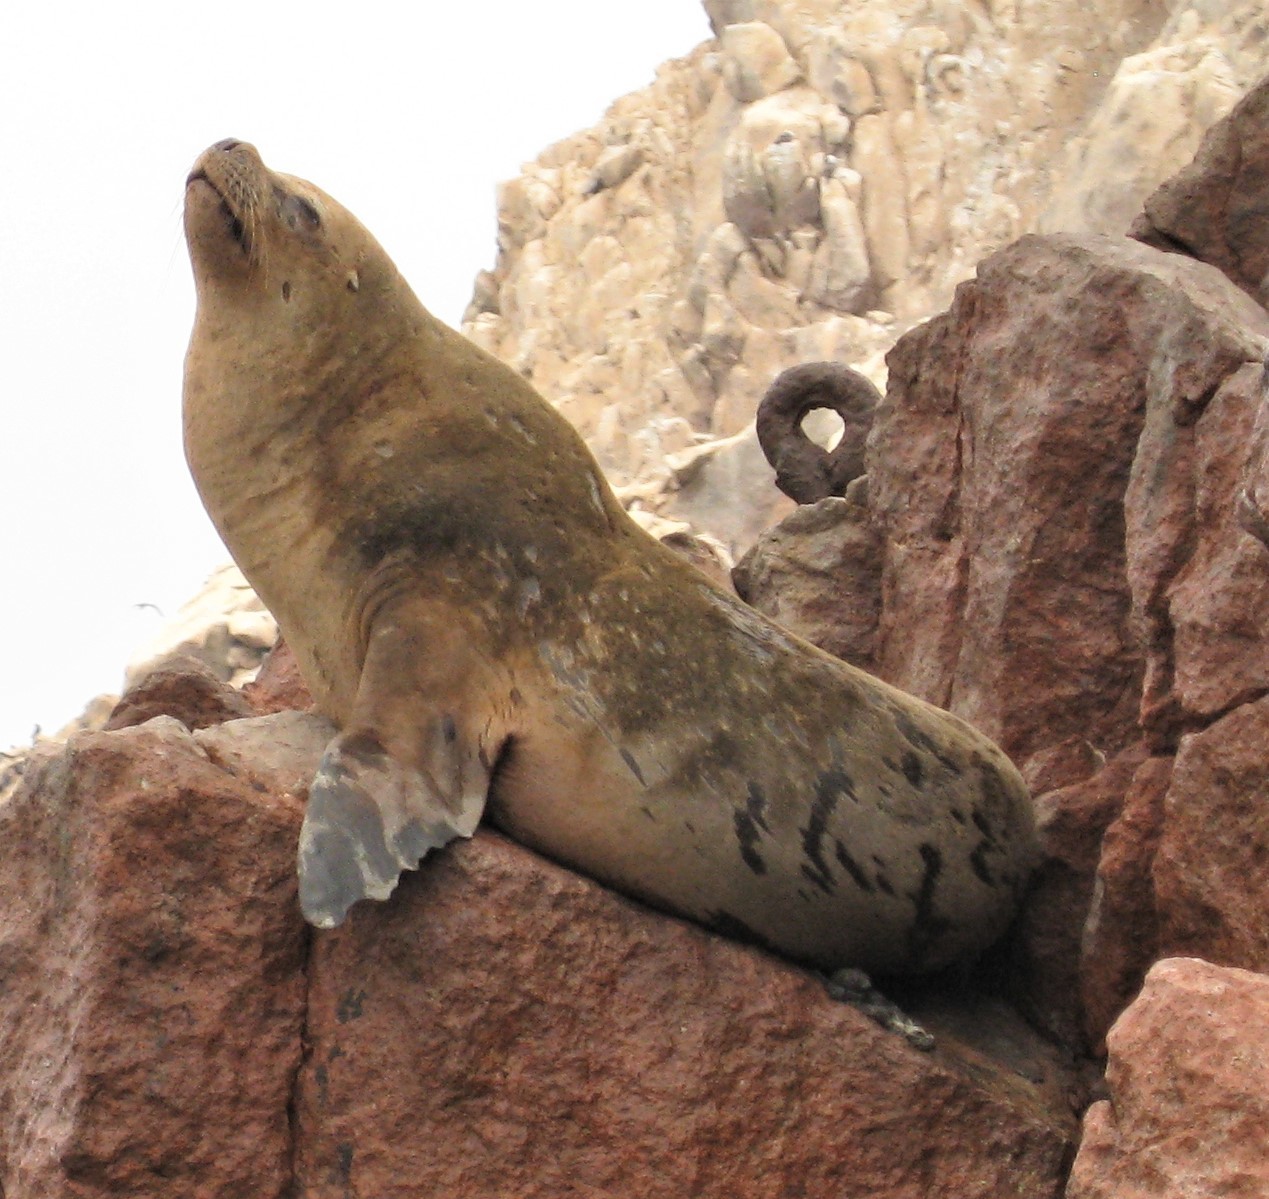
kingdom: Animalia
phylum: Chordata
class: Mammalia
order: Carnivora
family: Otariidae
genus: Otaria
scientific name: Otaria byronia
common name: South american sea lion
